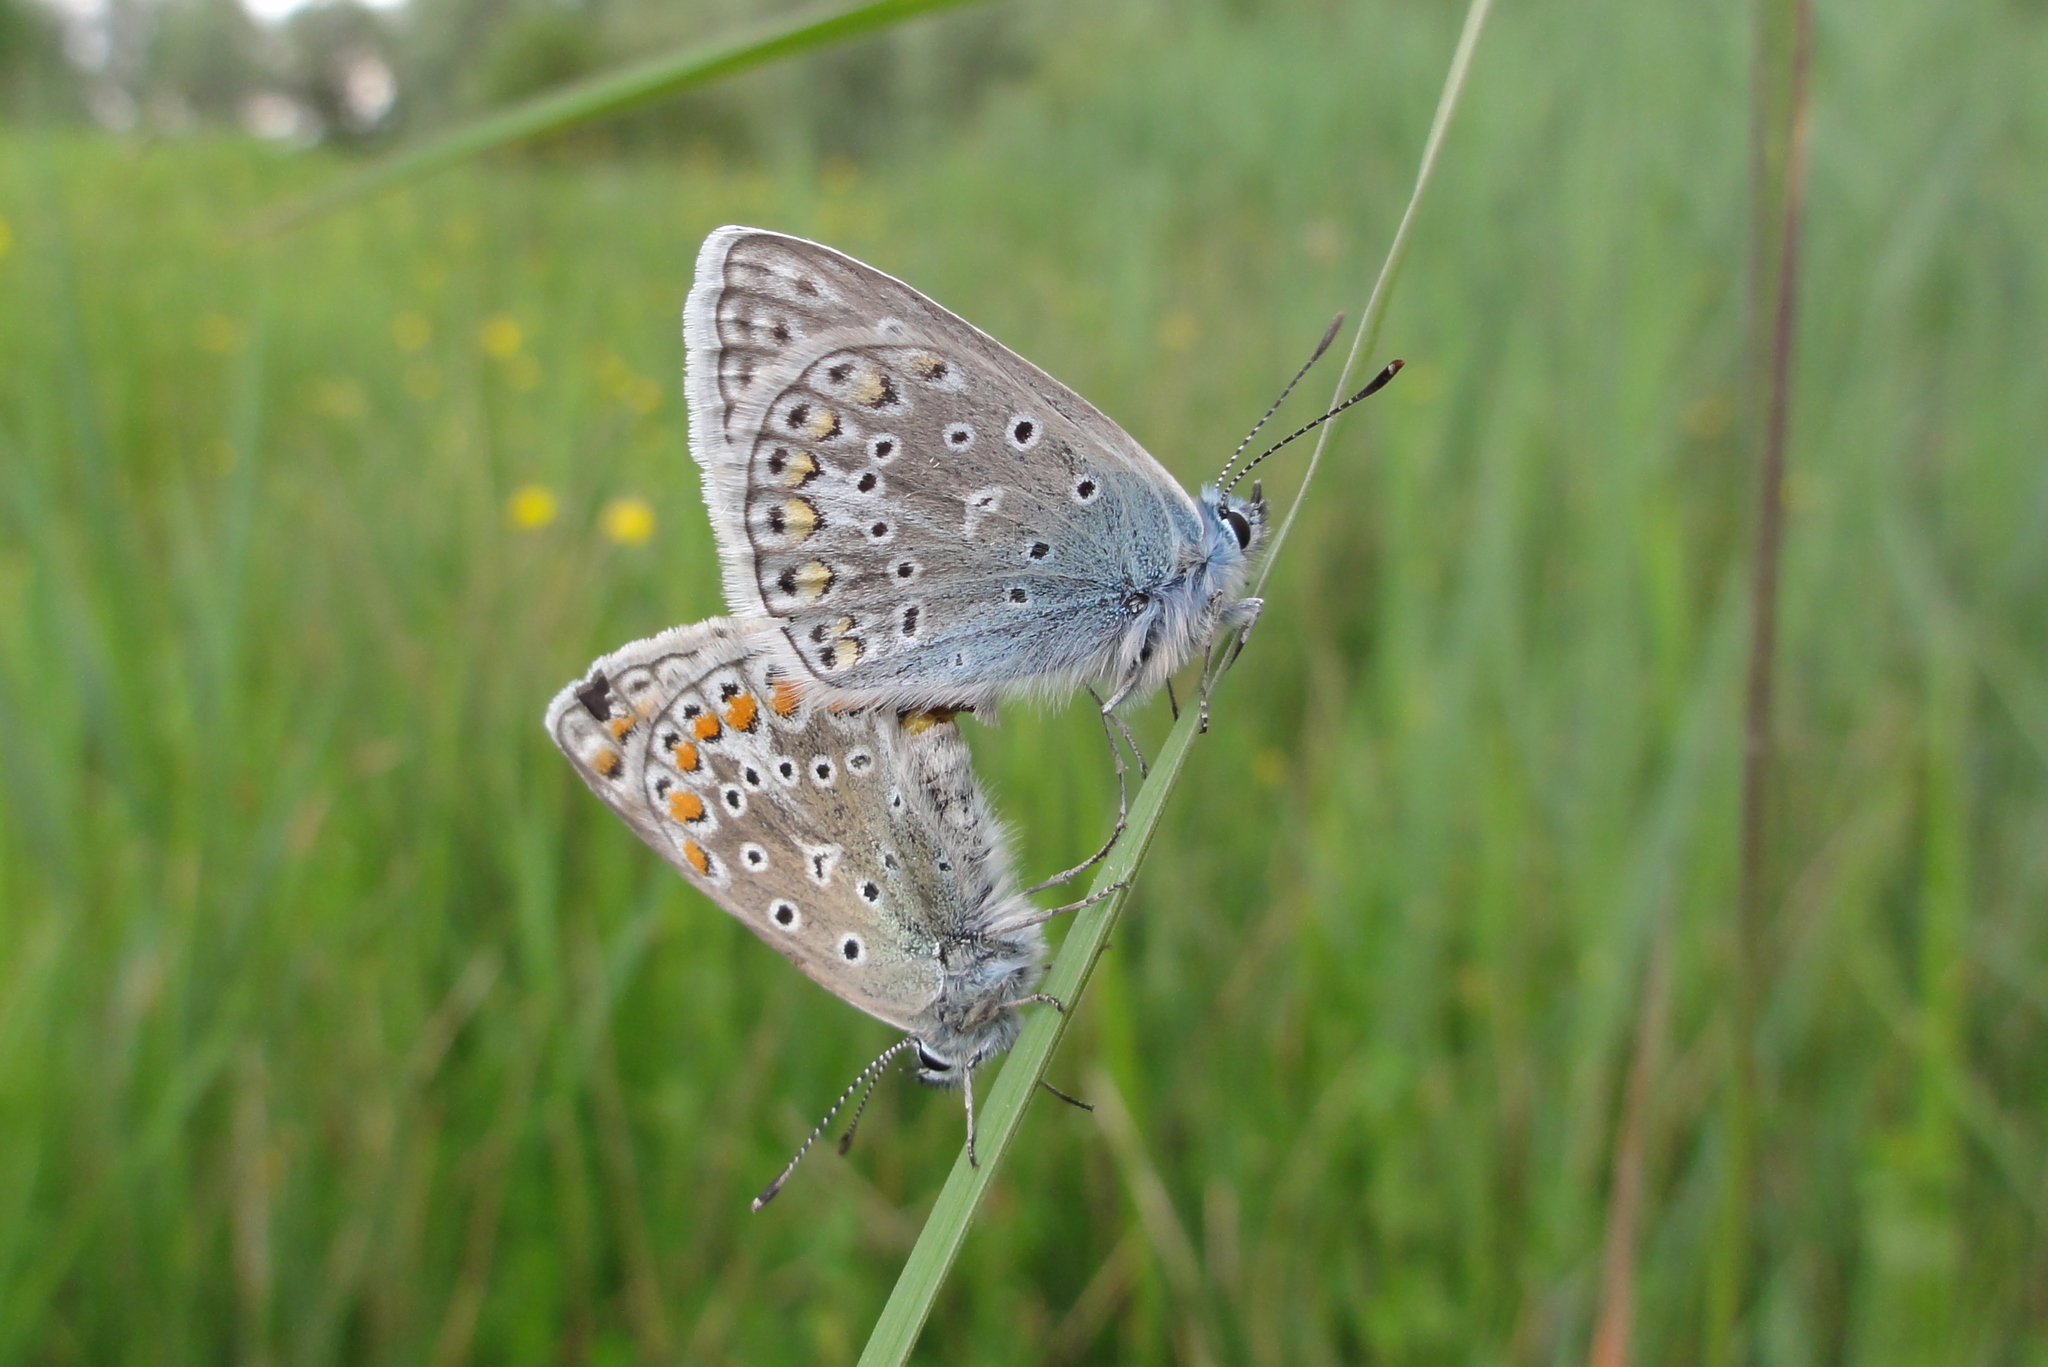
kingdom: Animalia
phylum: Arthropoda
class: Insecta
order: Lepidoptera
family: Lycaenidae
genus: Polyommatus
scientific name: Polyommatus icarus
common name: Common blue
